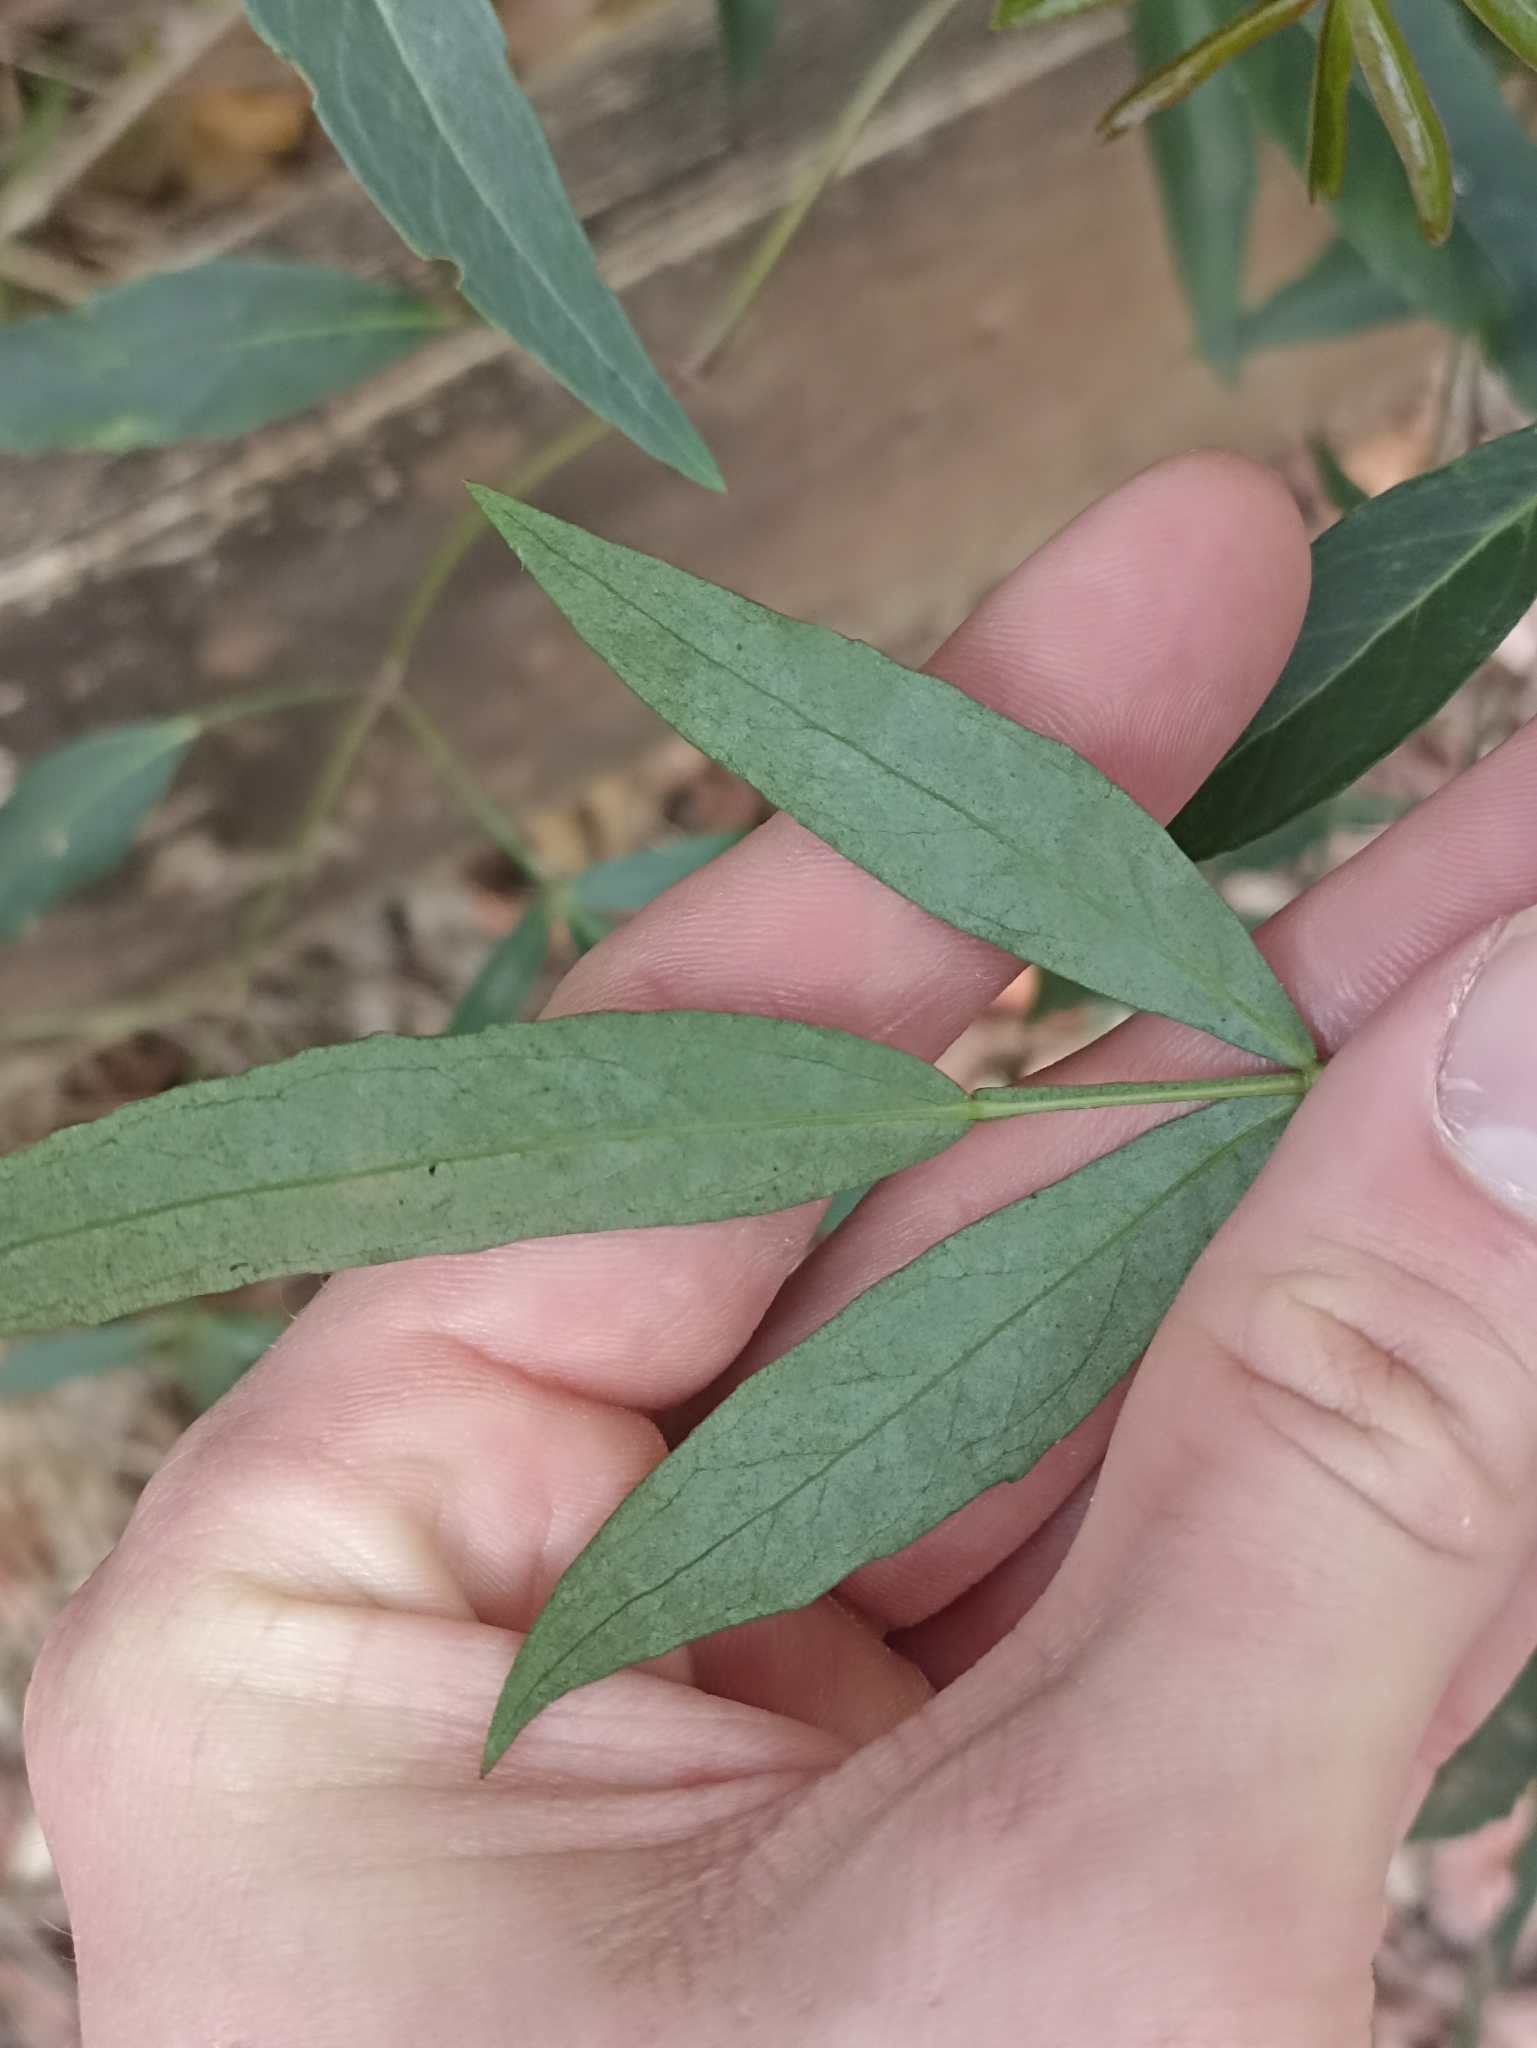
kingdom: Plantae
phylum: Tracheophyta
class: Magnoliopsida
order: Apiales
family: Araliaceae
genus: Polyscias
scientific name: Polyscias sambucifolia
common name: Elderberry-ash
